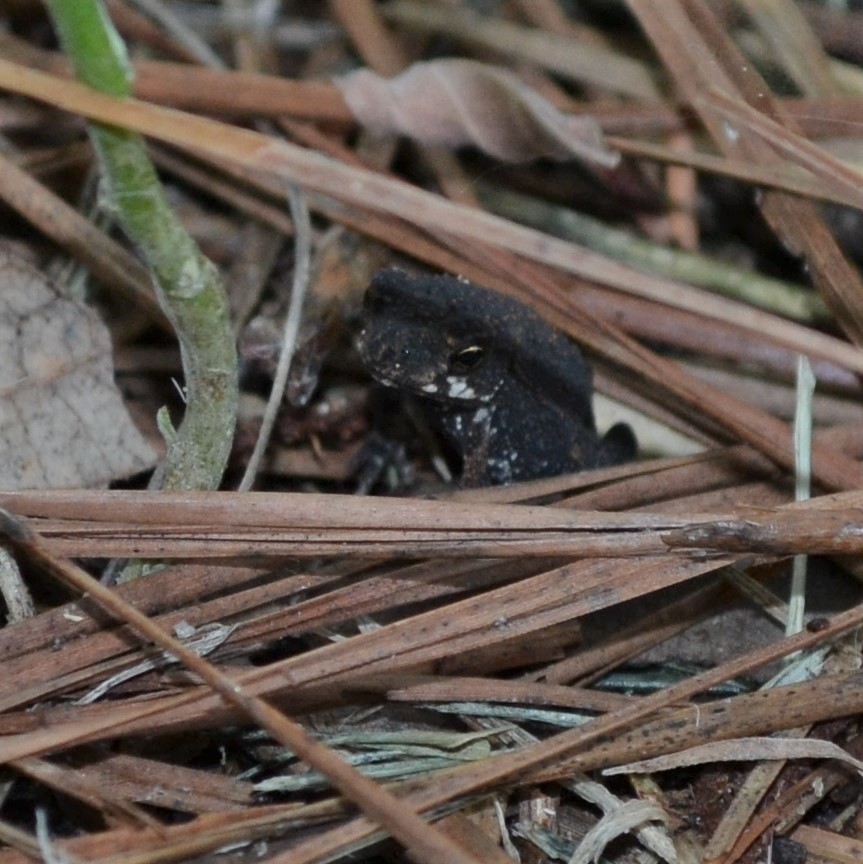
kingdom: Animalia
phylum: Chordata
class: Amphibia
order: Anura
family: Bufonidae
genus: Incilius
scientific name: Incilius nebulifer
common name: Gulf coast toad
